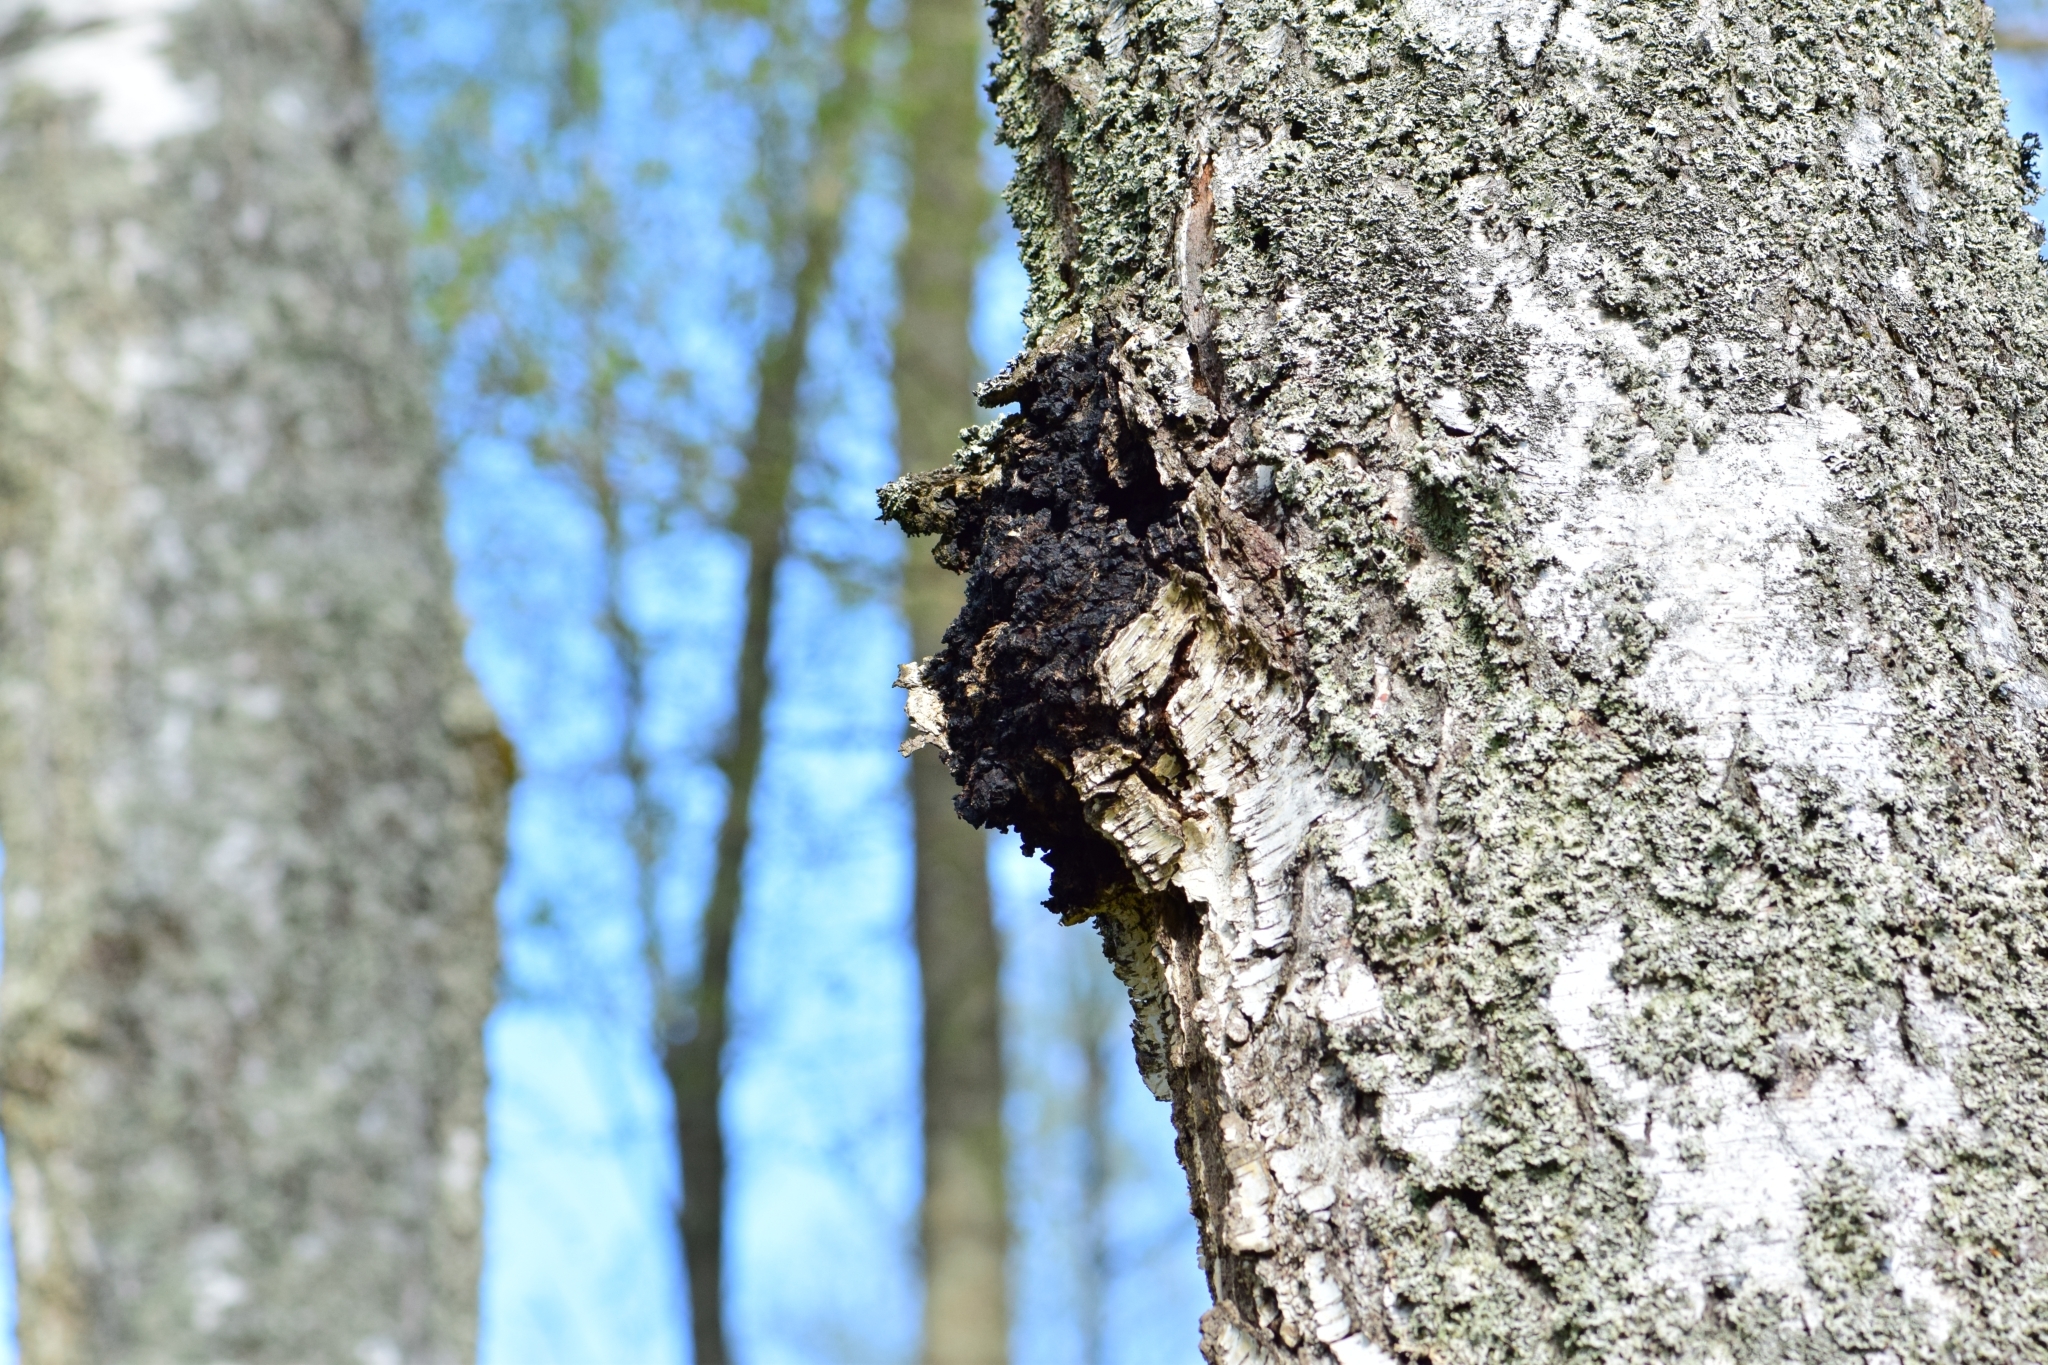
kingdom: Fungi
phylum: Basidiomycota
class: Agaricomycetes
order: Hymenochaetales
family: Hymenochaetaceae
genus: Inonotus
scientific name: Inonotus obliquus
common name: Chaga
